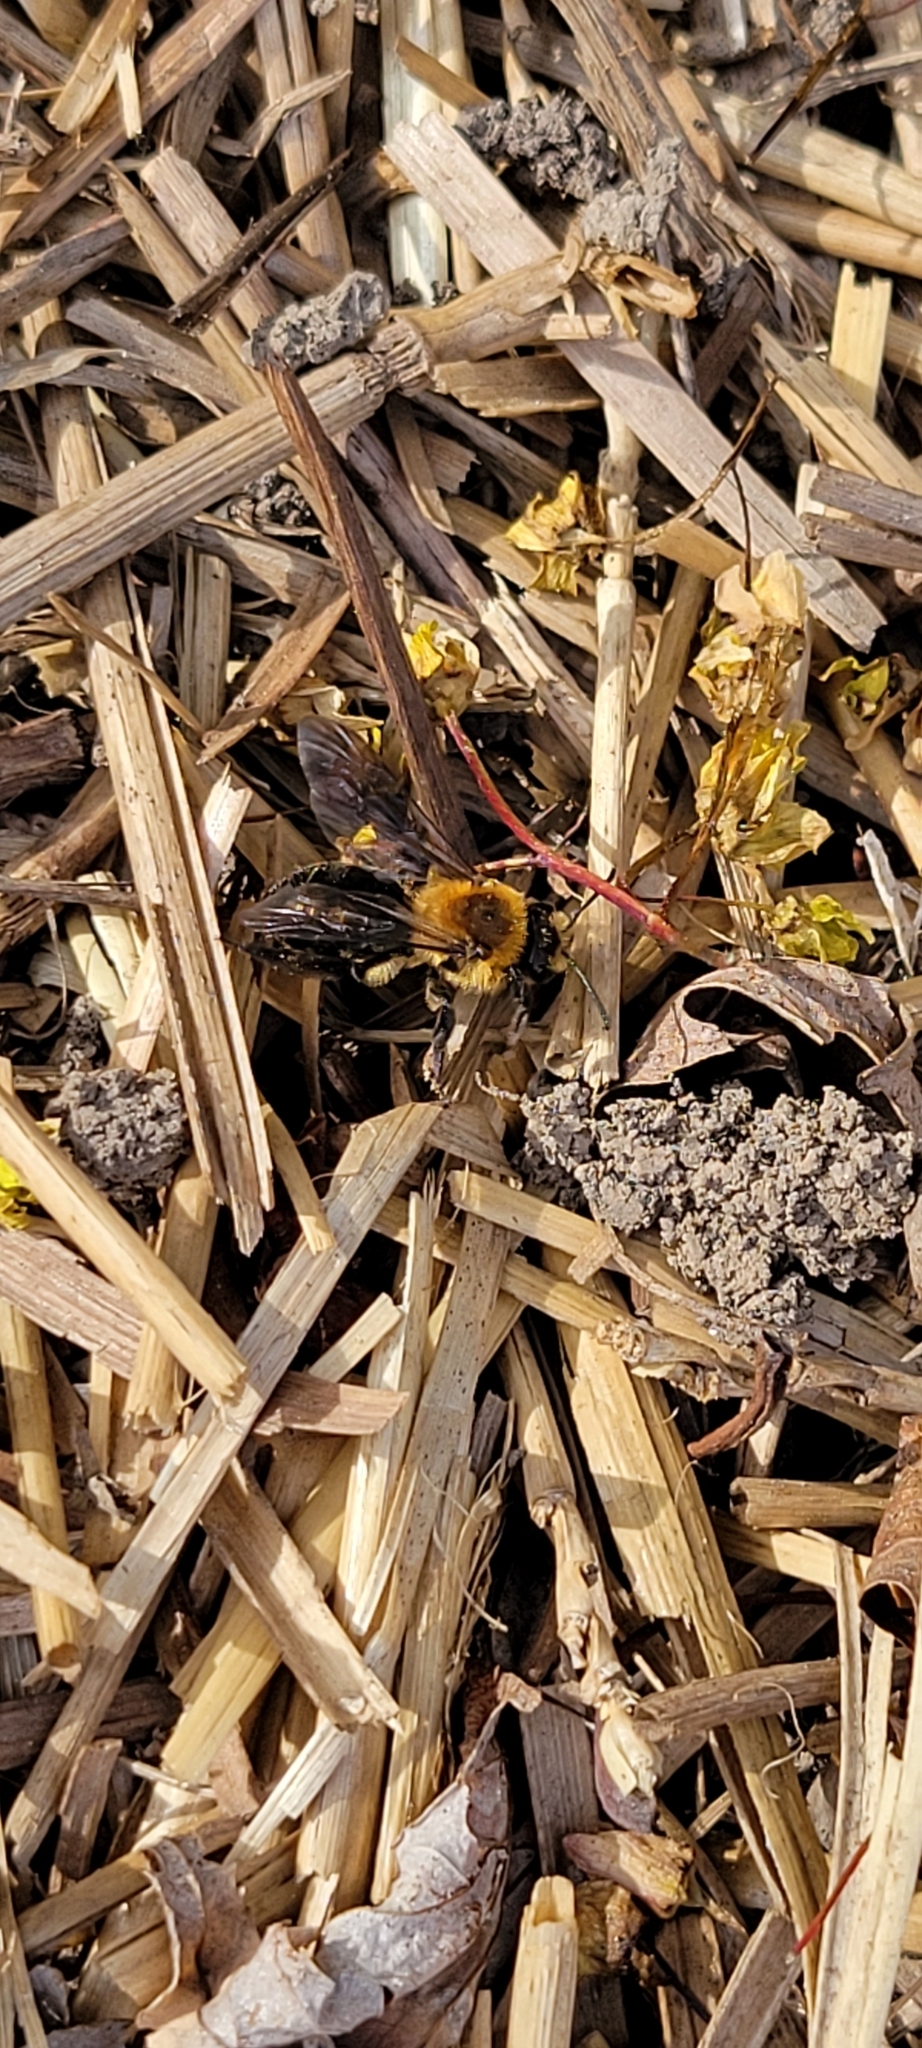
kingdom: Animalia
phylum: Arthropoda
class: Insecta
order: Hymenoptera
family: Andrenidae
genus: Andrena
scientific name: Andrena dunningi
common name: Dunning's miner
